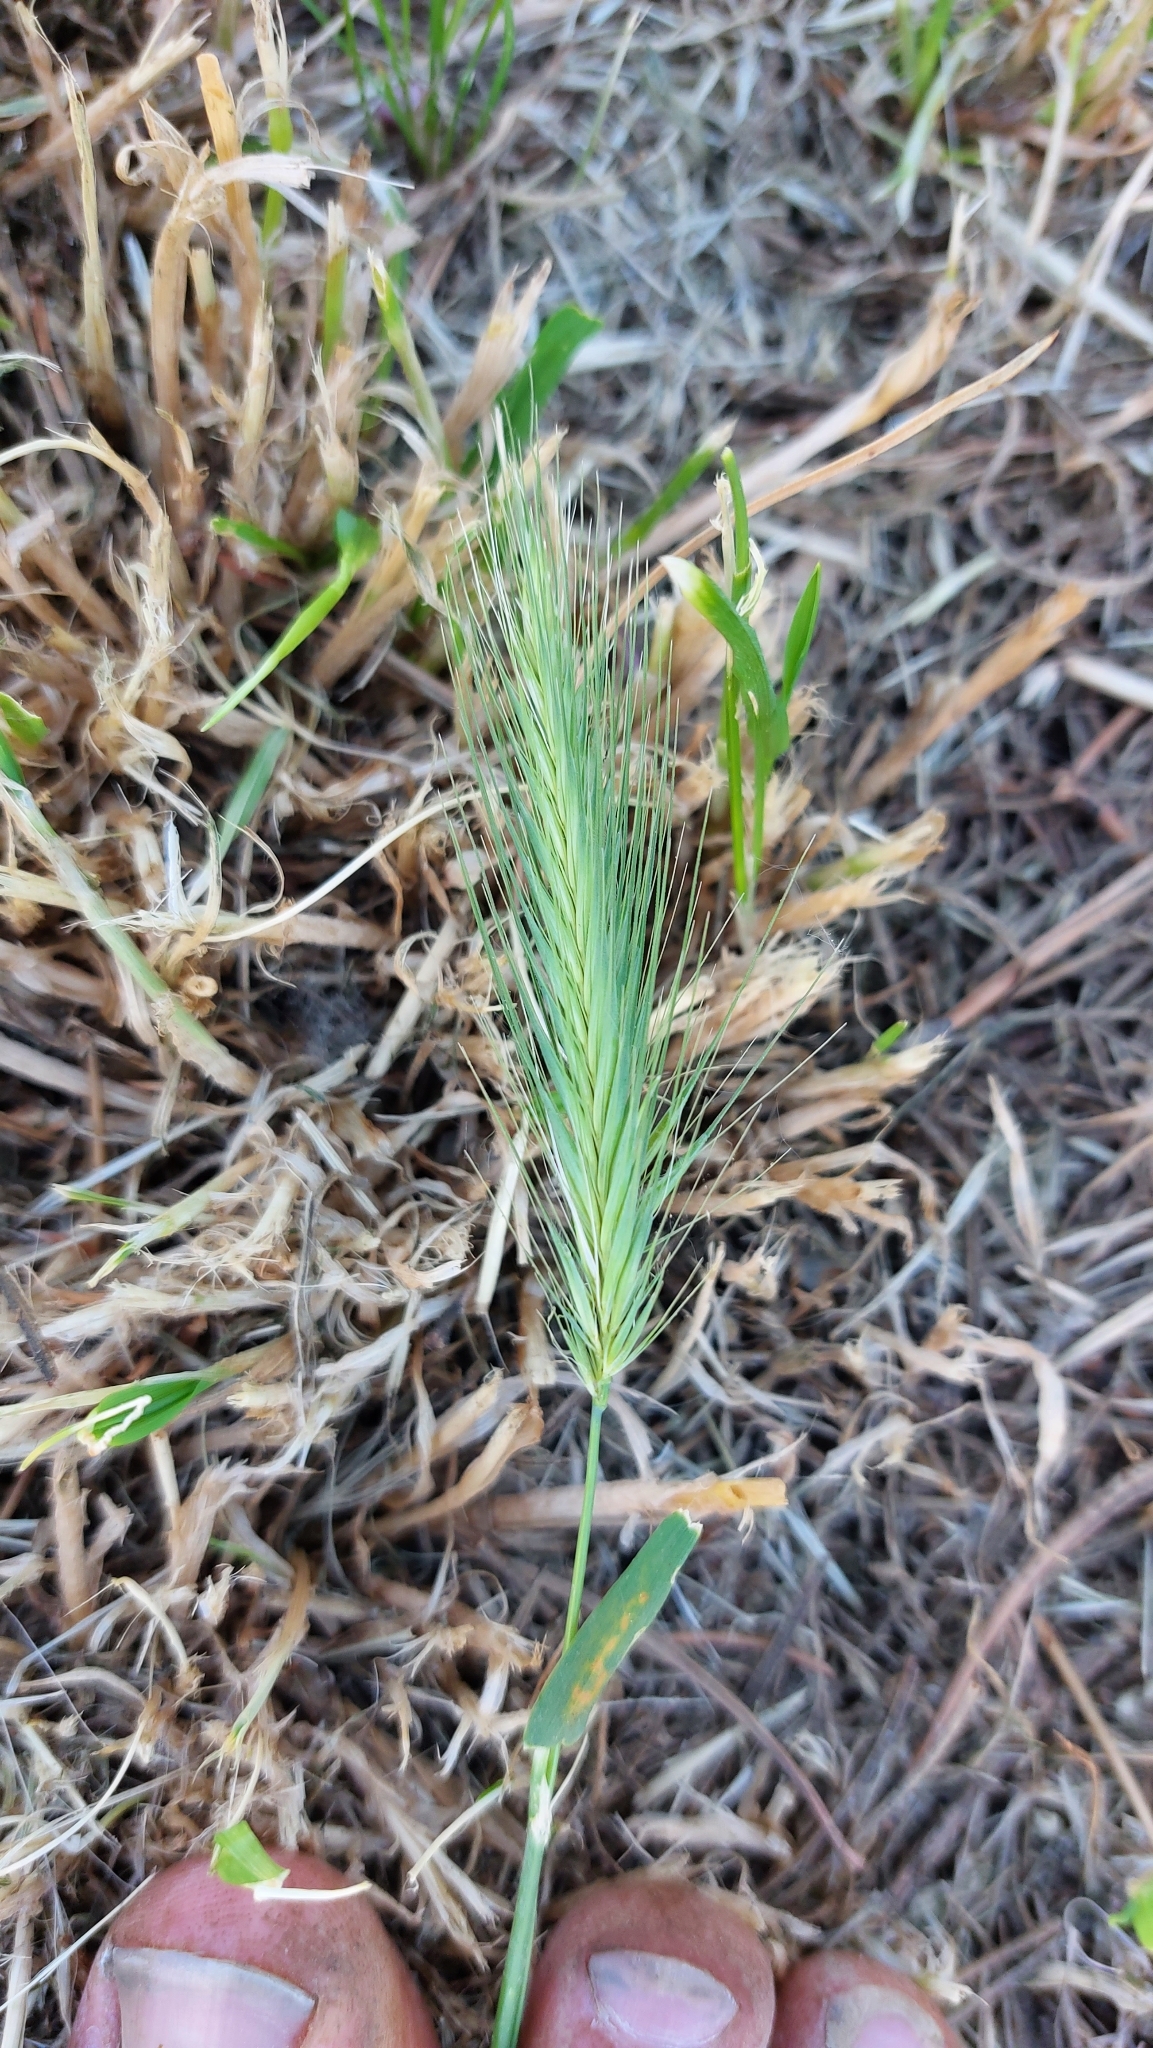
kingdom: Plantae
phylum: Tracheophyta
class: Liliopsida
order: Poales
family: Poaceae
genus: Hordeum
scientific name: Hordeum murinum
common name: Wall barley
